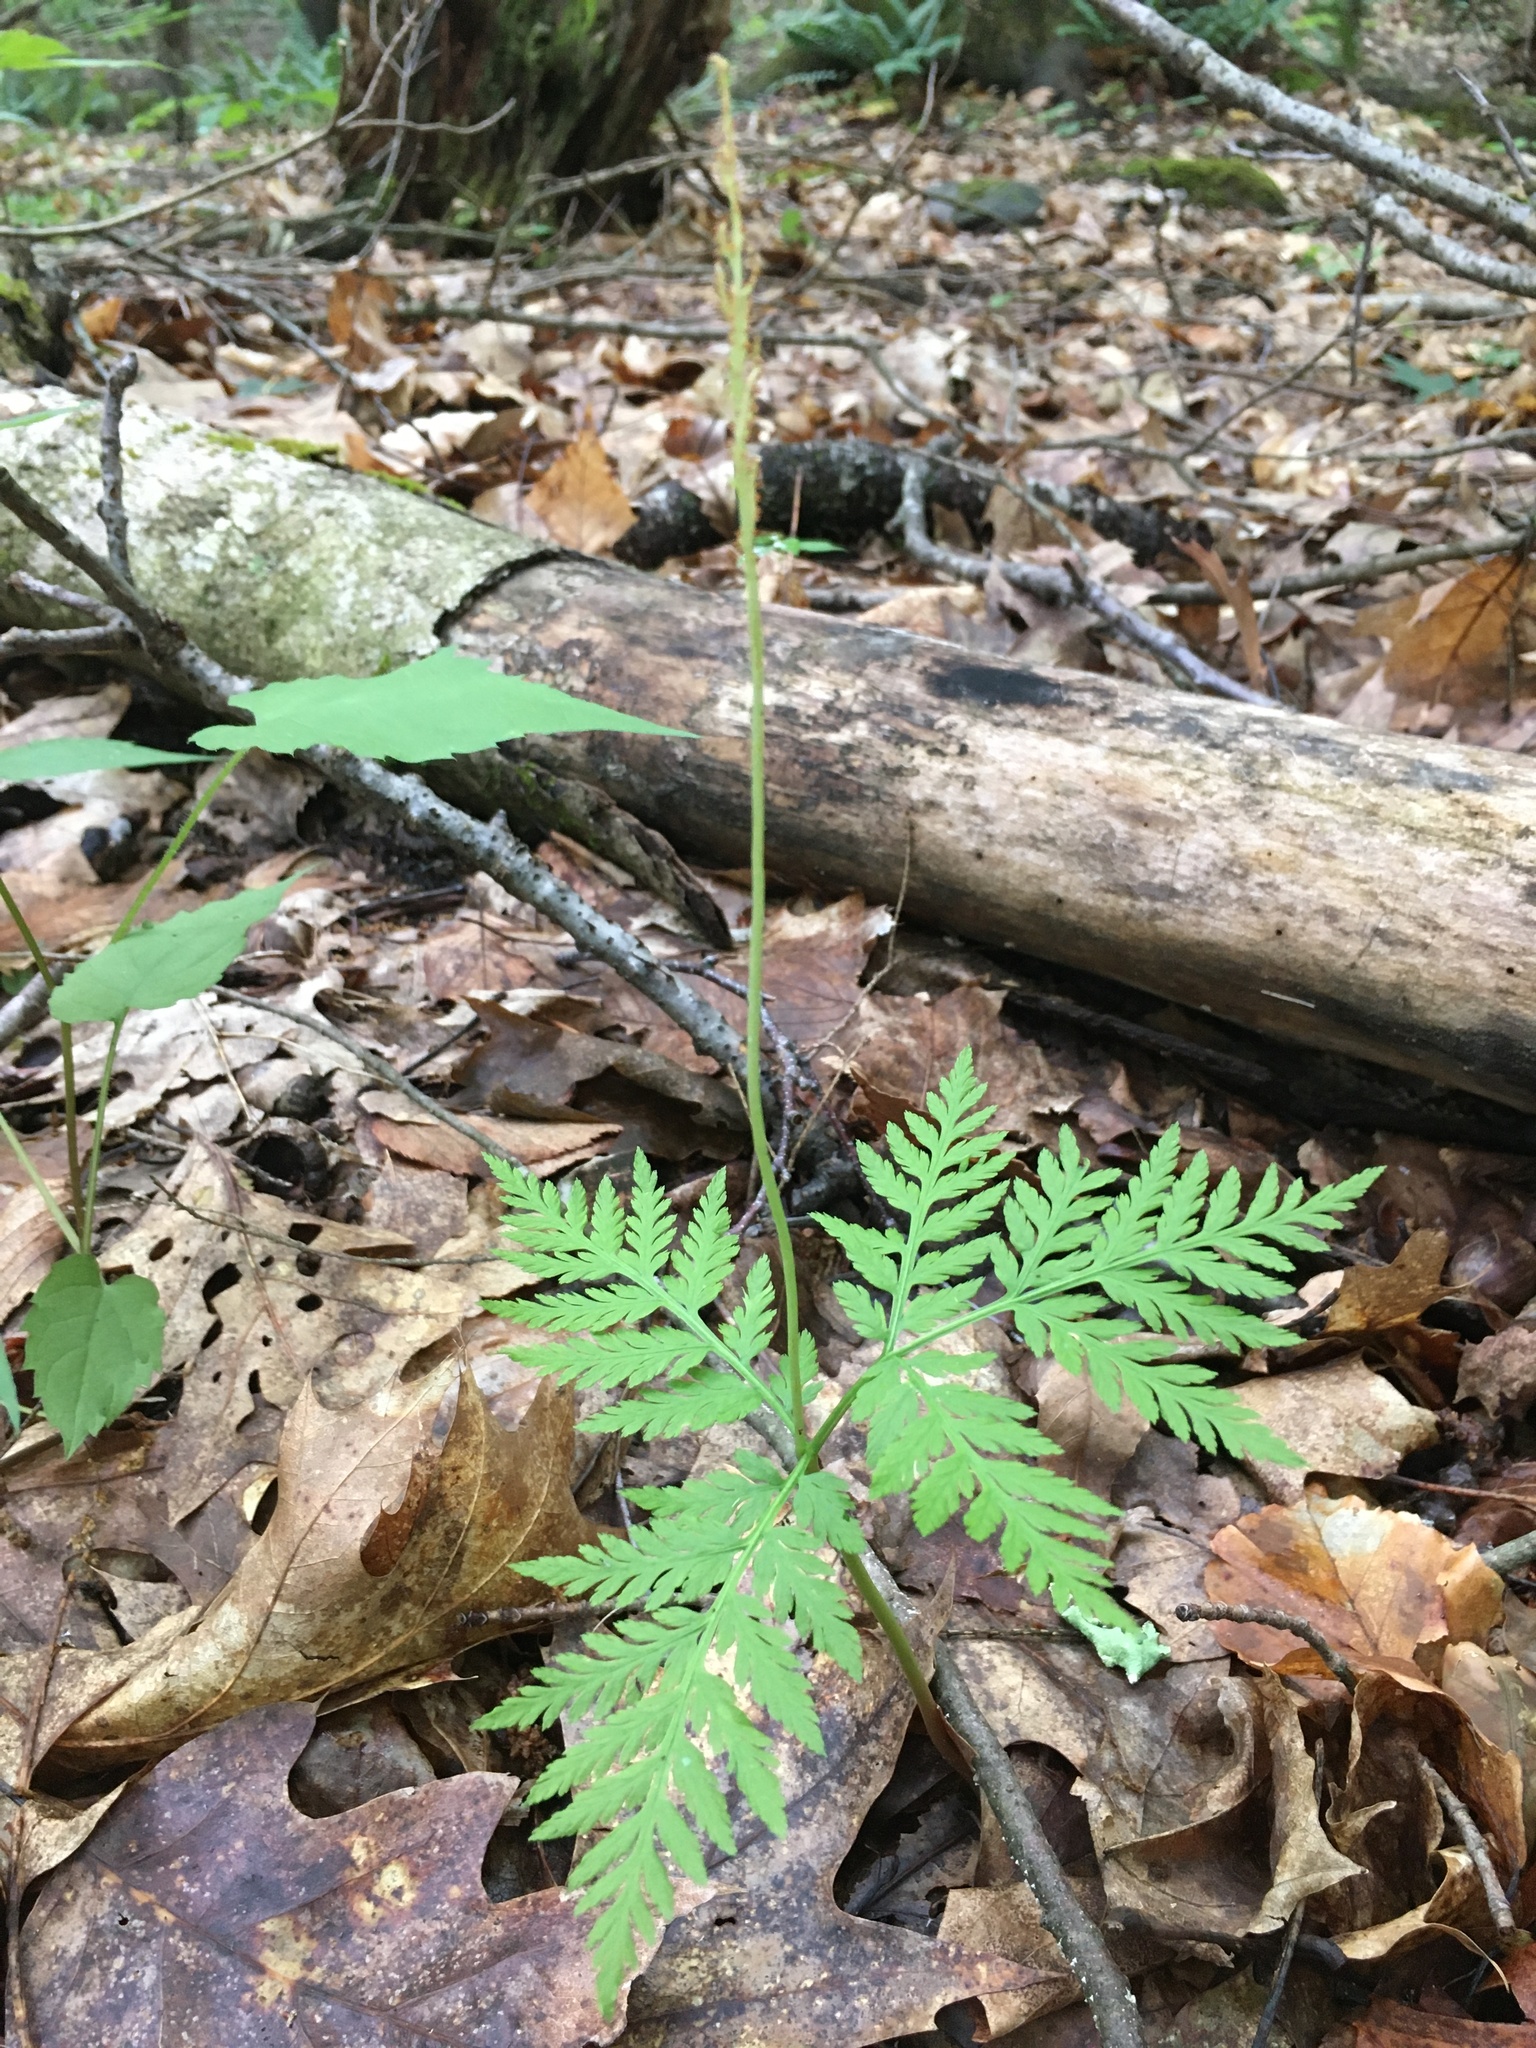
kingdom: Plantae
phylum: Tracheophyta
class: Polypodiopsida
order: Ophioglossales
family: Ophioglossaceae
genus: Botrypus
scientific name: Botrypus virginianus
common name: Common grapefern
